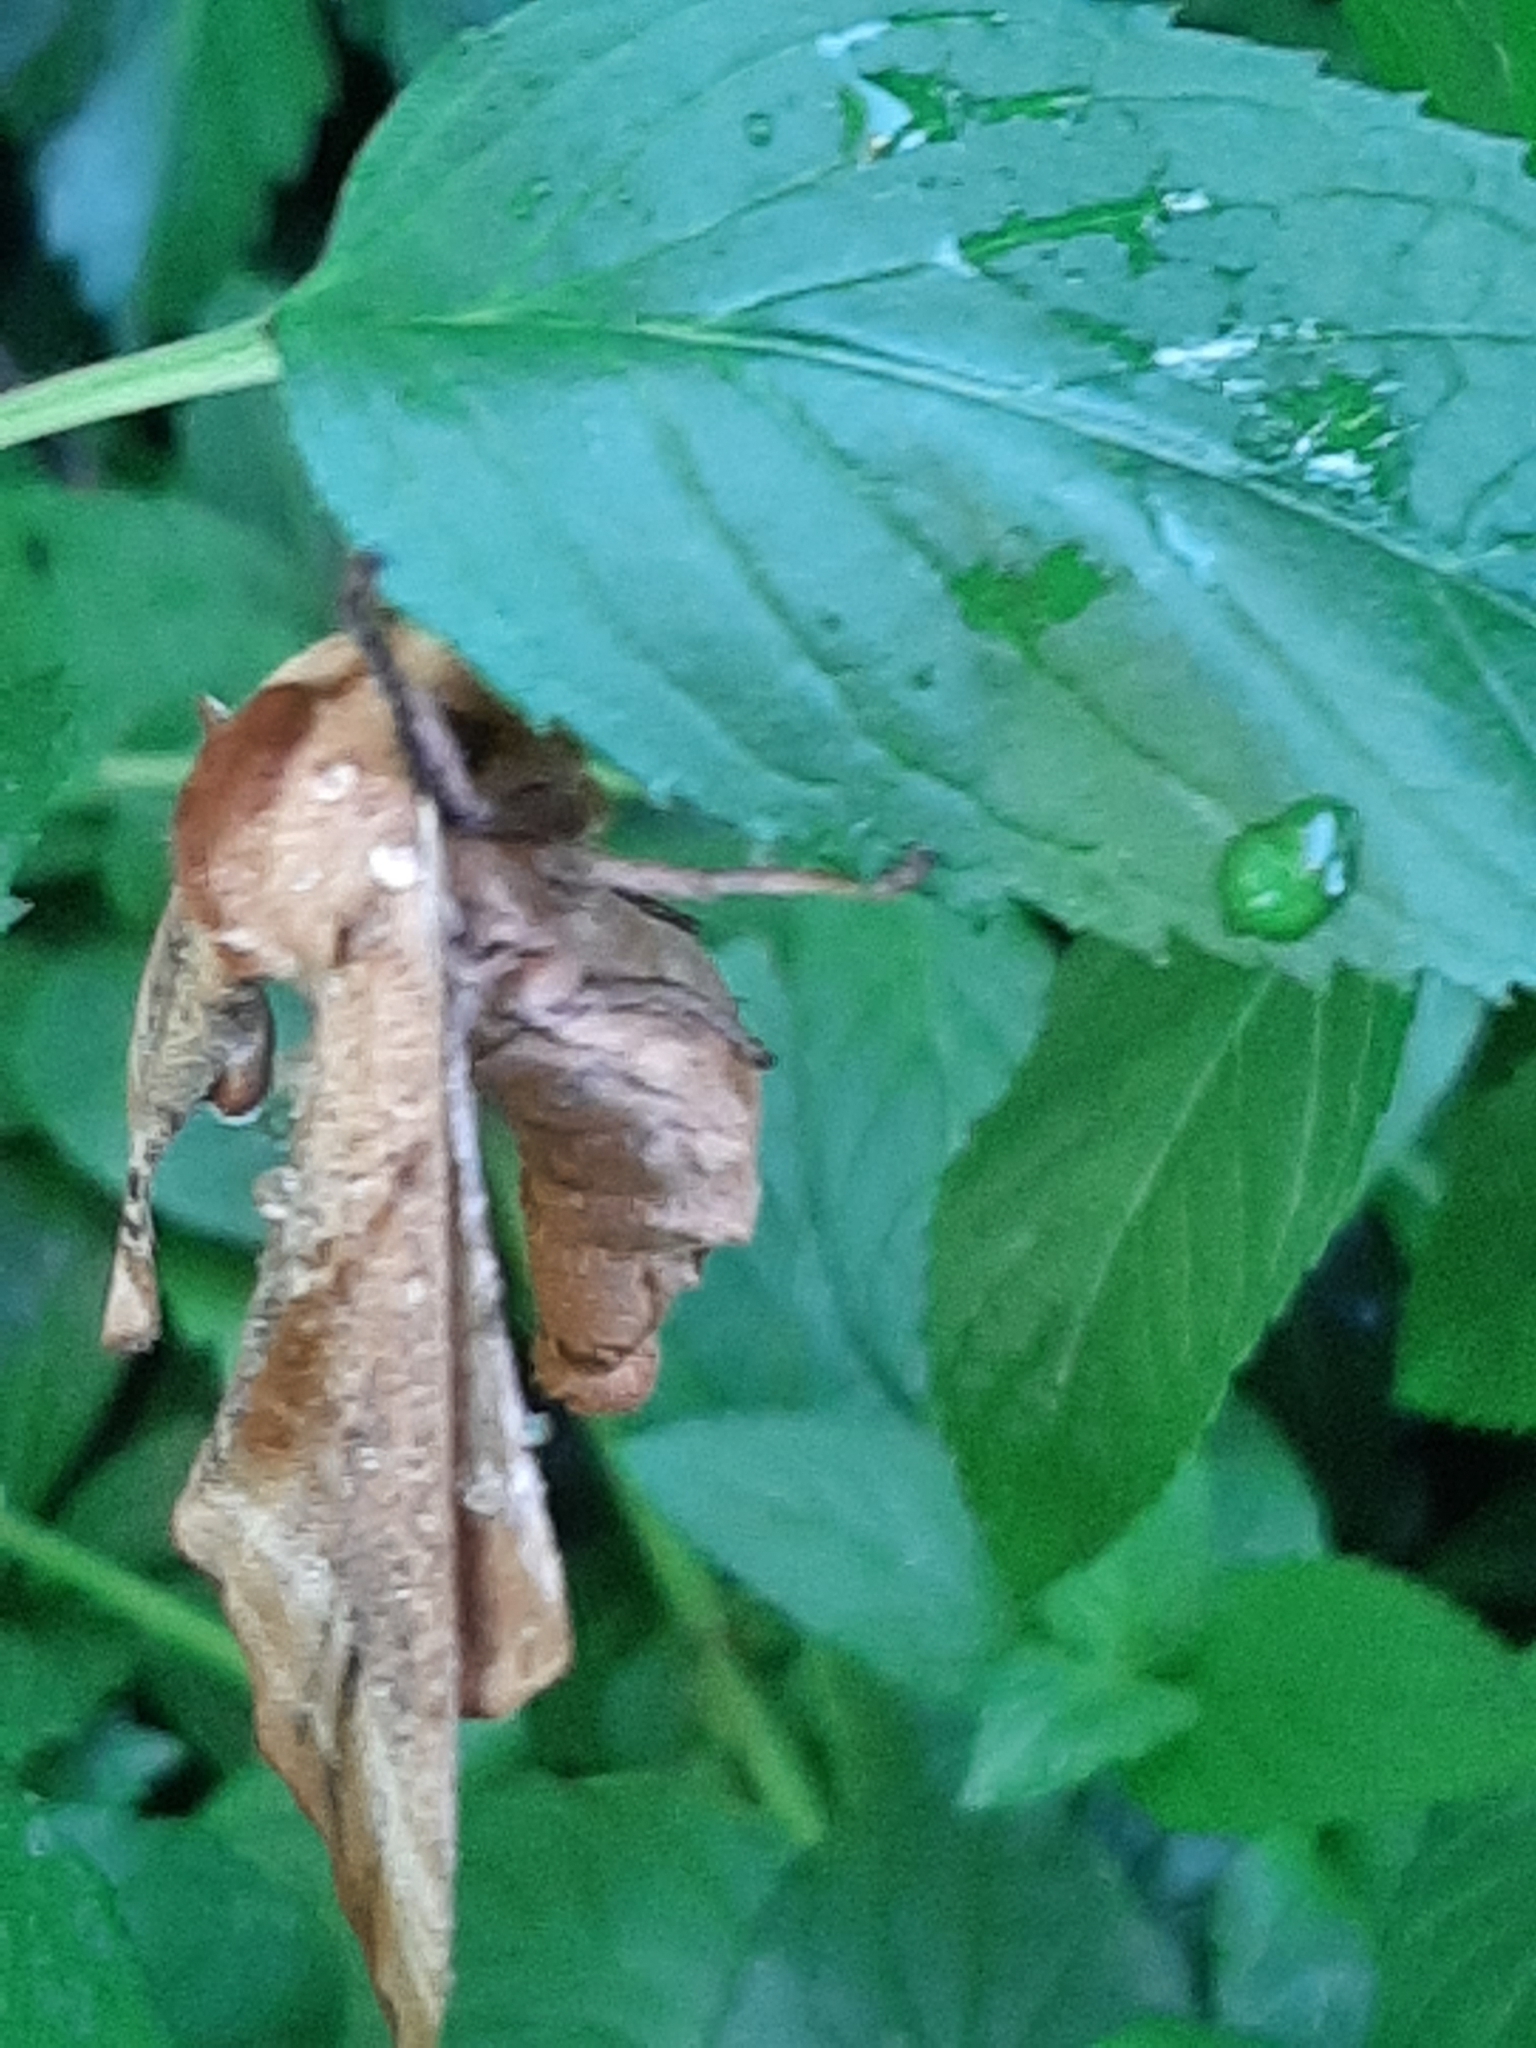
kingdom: Animalia
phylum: Arthropoda
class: Insecta
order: Lepidoptera
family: Sphingidae
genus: Paonias
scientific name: Paonias excaecata
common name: Blind-eyed sphinx
